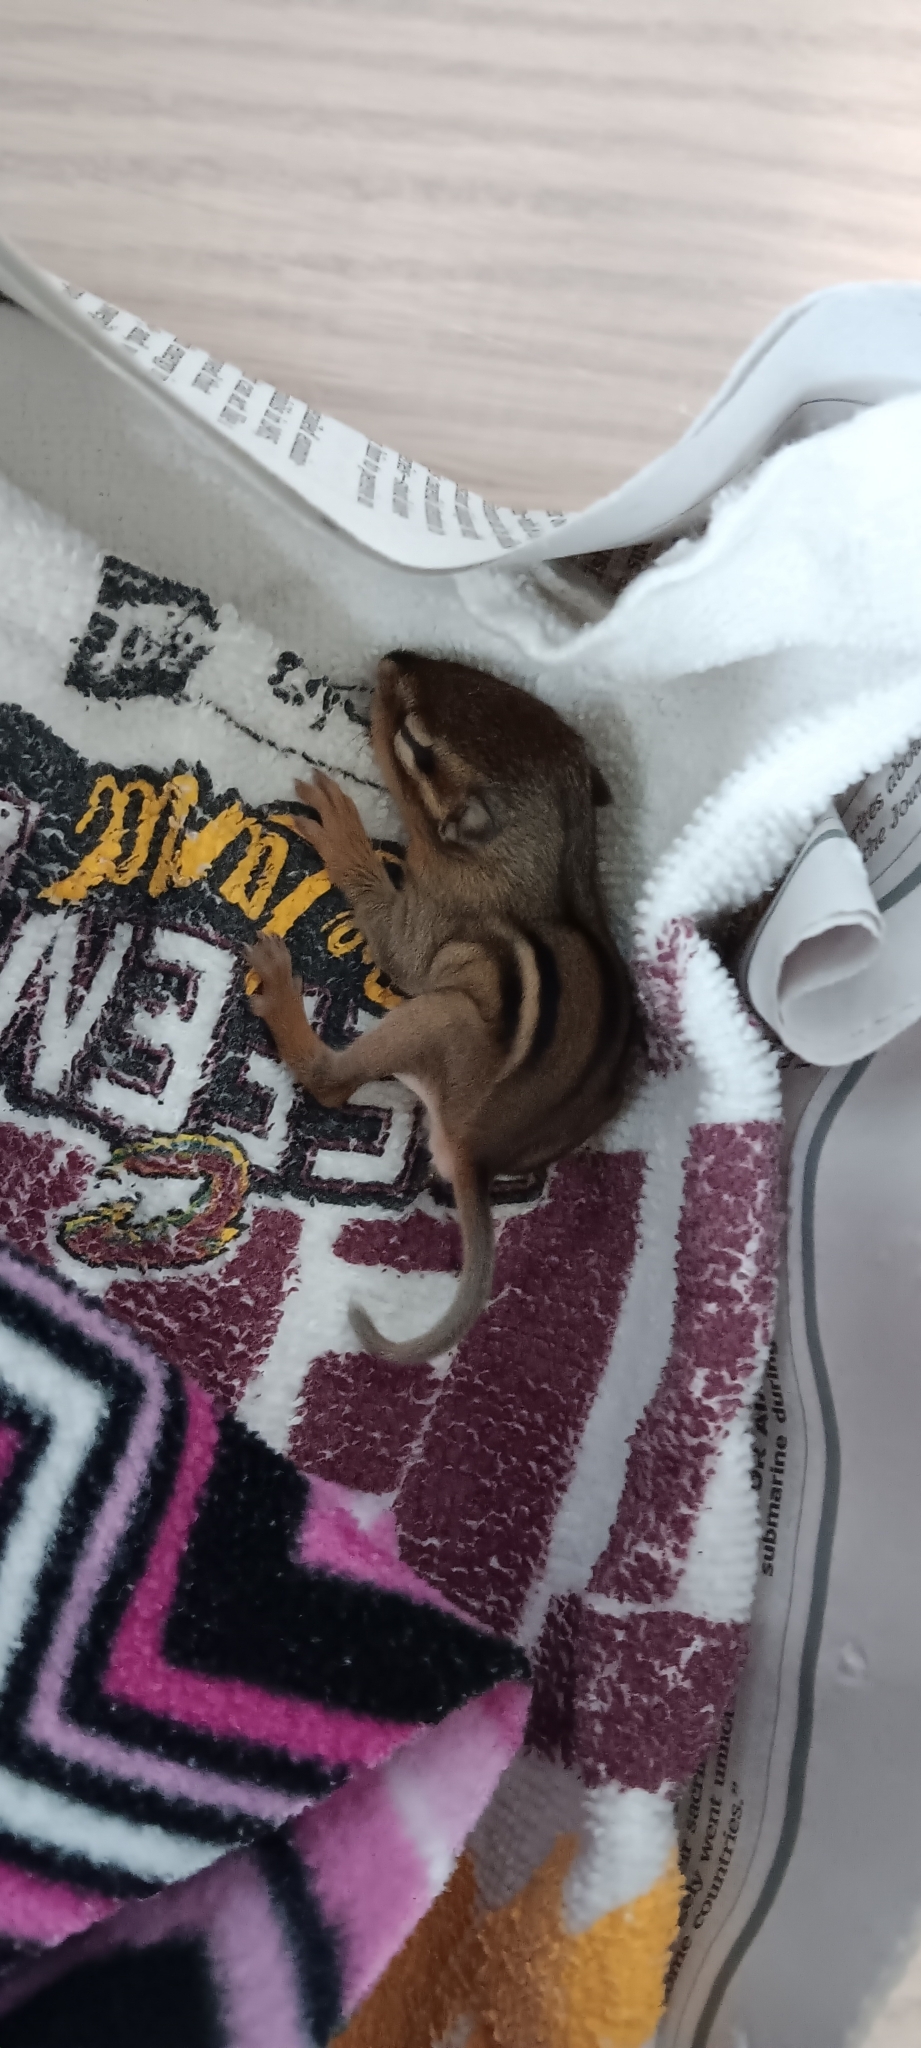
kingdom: Animalia
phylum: Chordata
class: Mammalia
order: Rodentia
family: Sciuridae
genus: Tamias
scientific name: Tamias striatus
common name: Eastern chipmunk
